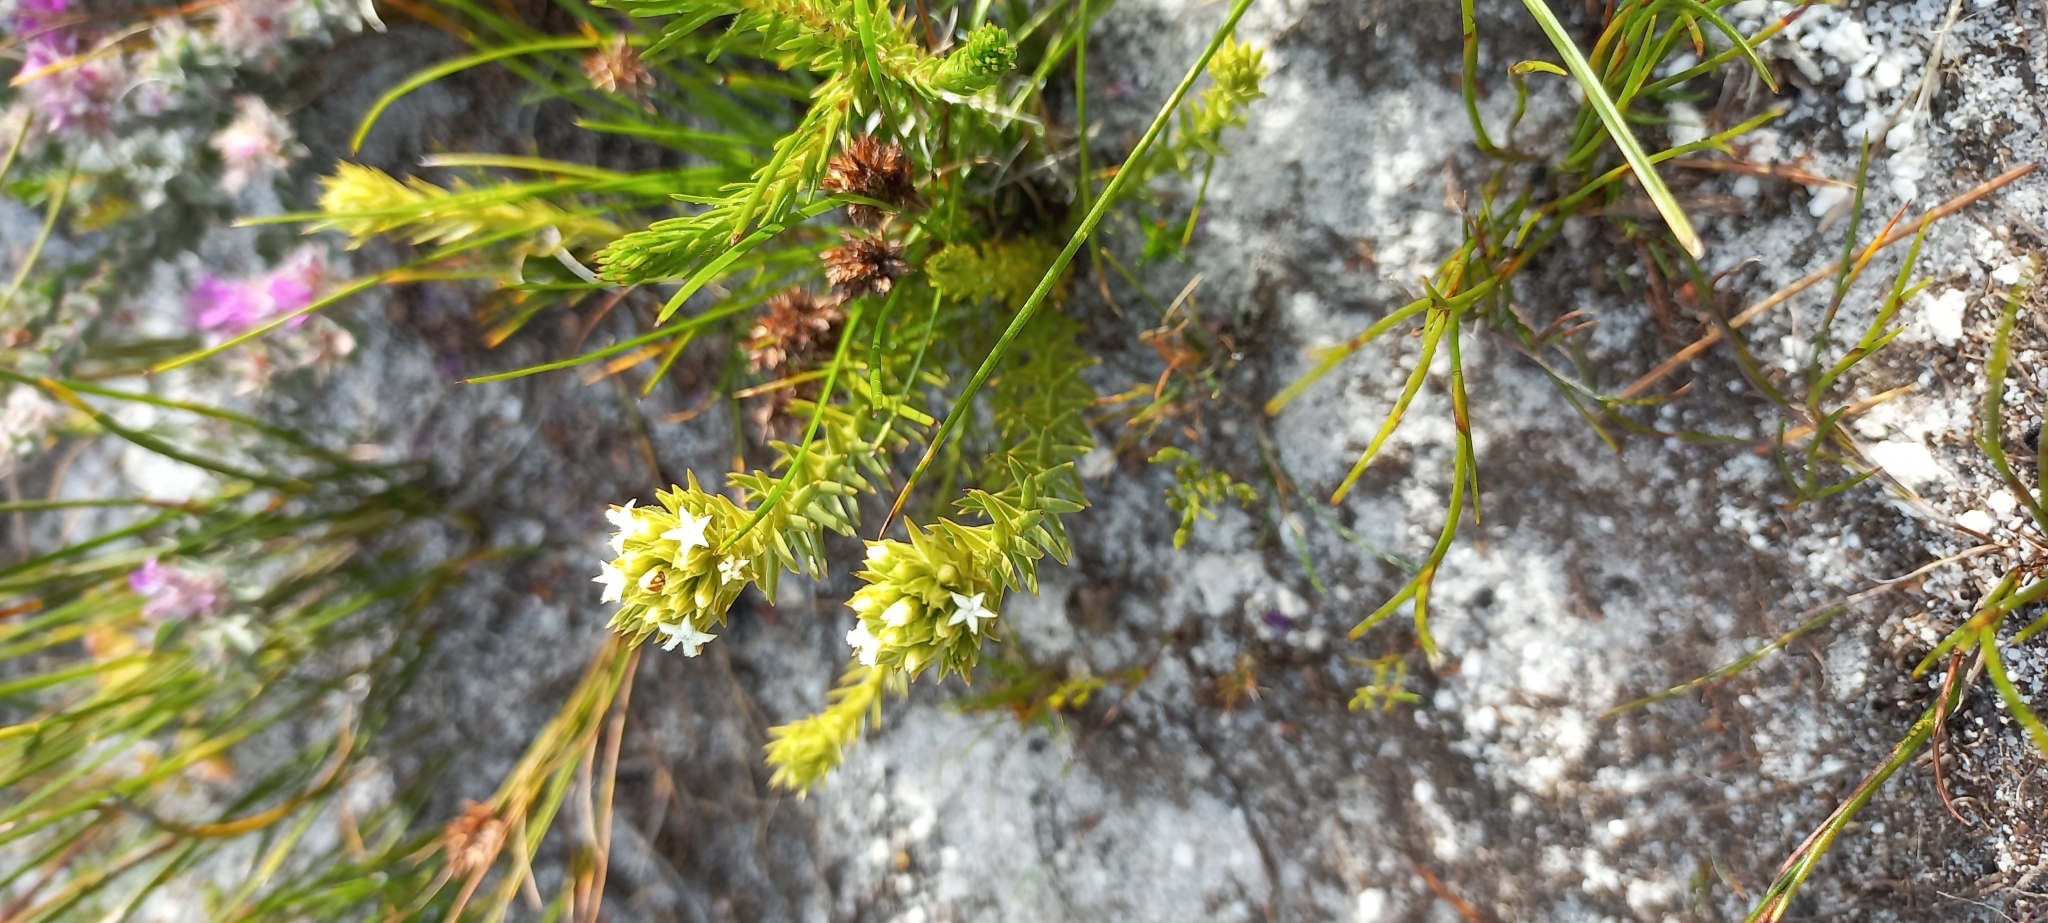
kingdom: Plantae
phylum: Tracheophyta
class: Magnoliopsida
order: Santalales
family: Thesiaceae
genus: Thesium
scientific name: Thesium capitatum
